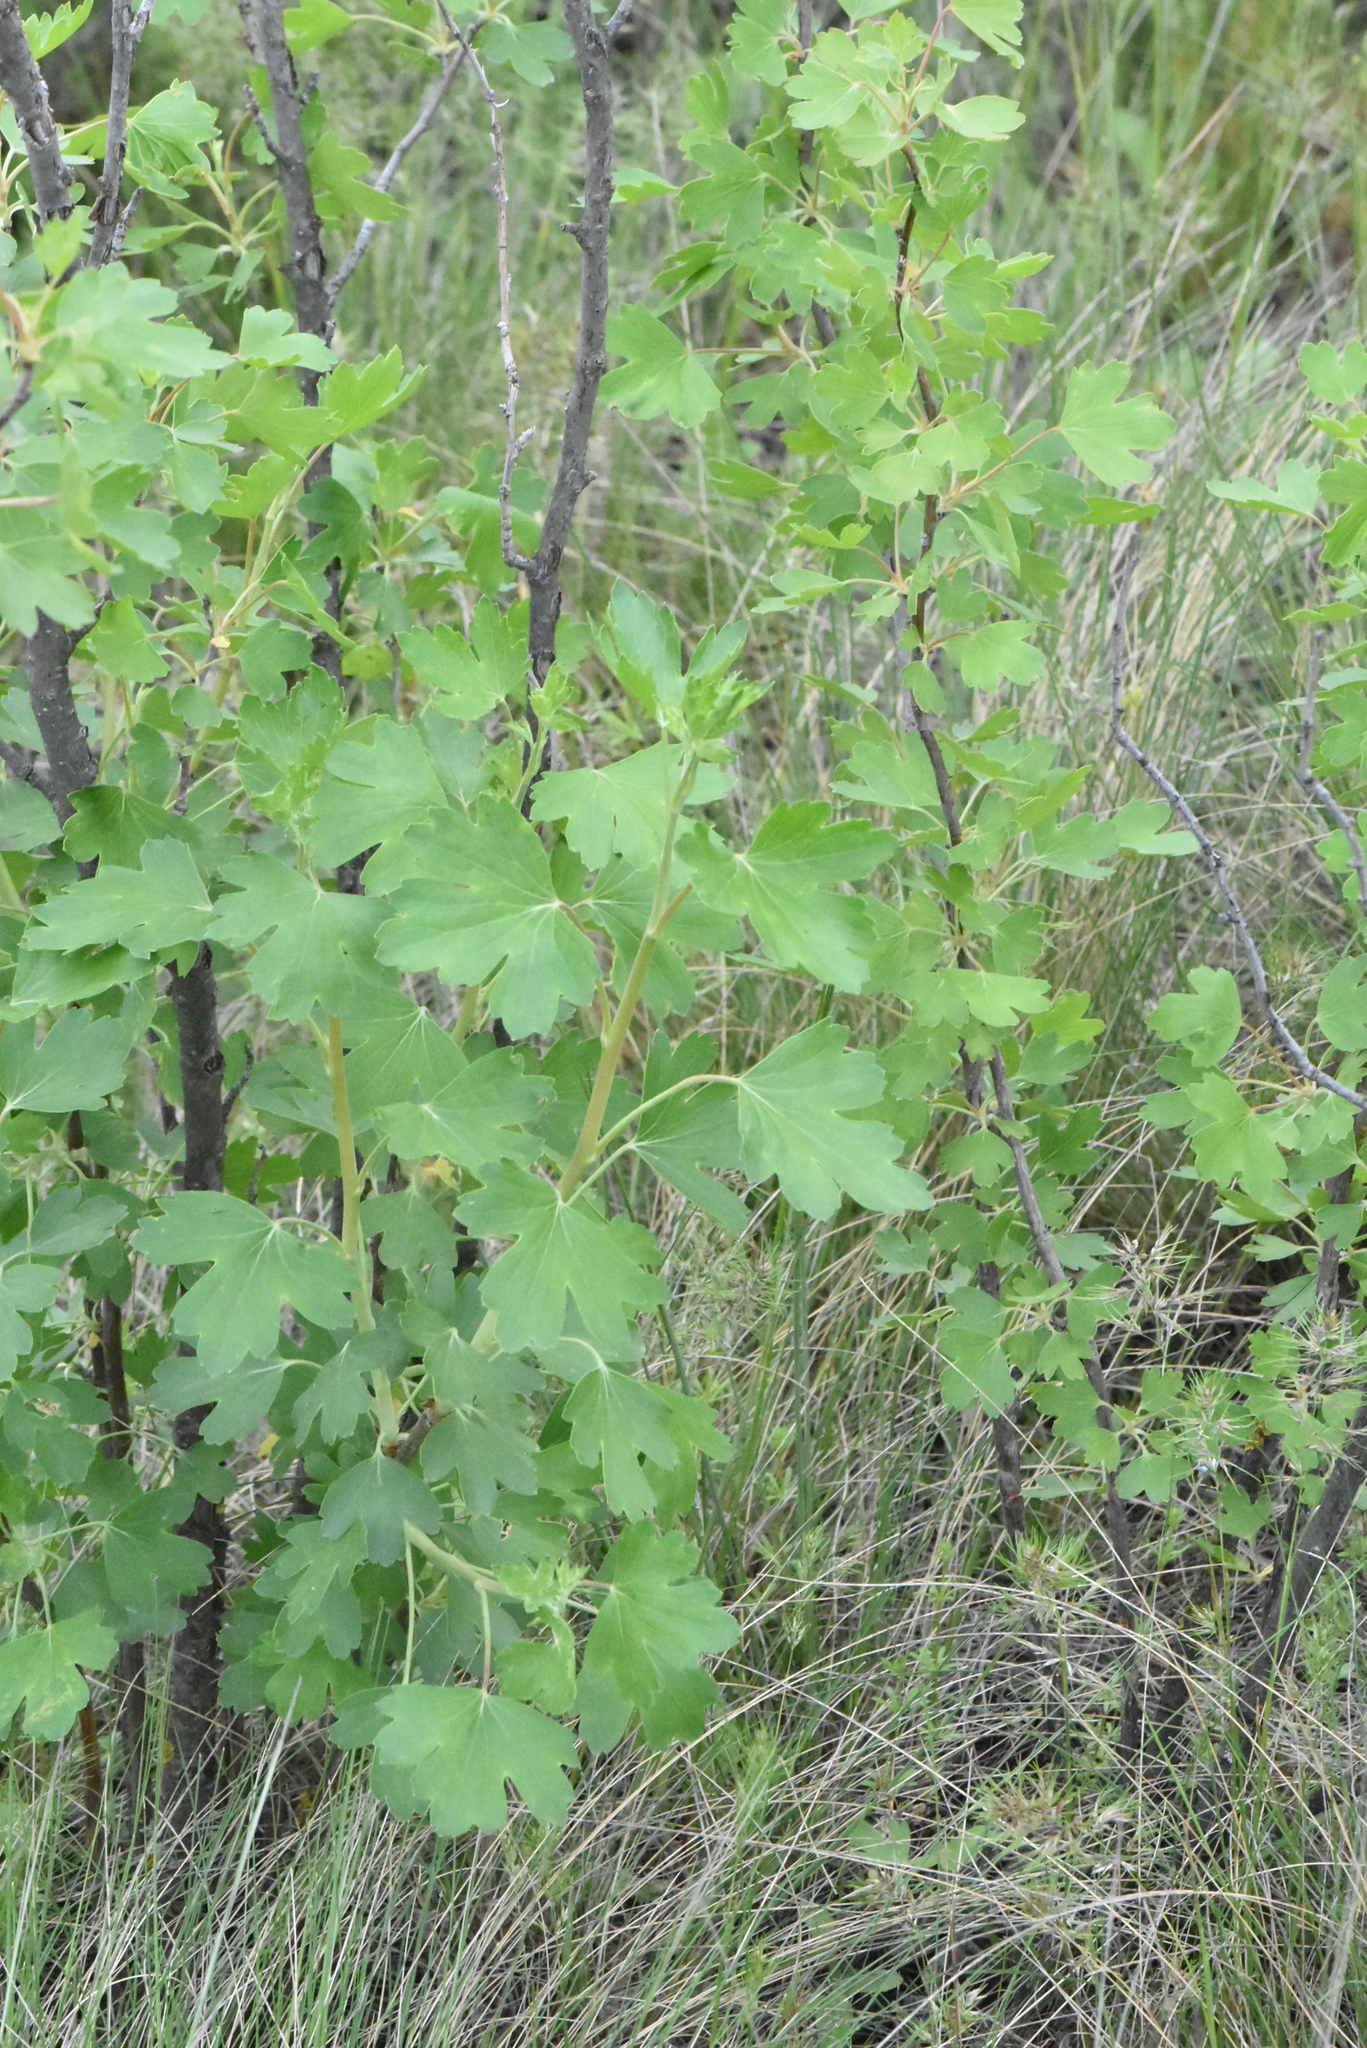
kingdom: Plantae
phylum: Tracheophyta
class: Magnoliopsida
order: Saxifragales
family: Grossulariaceae
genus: Ribes
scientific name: Ribes aureum
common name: Golden currant
